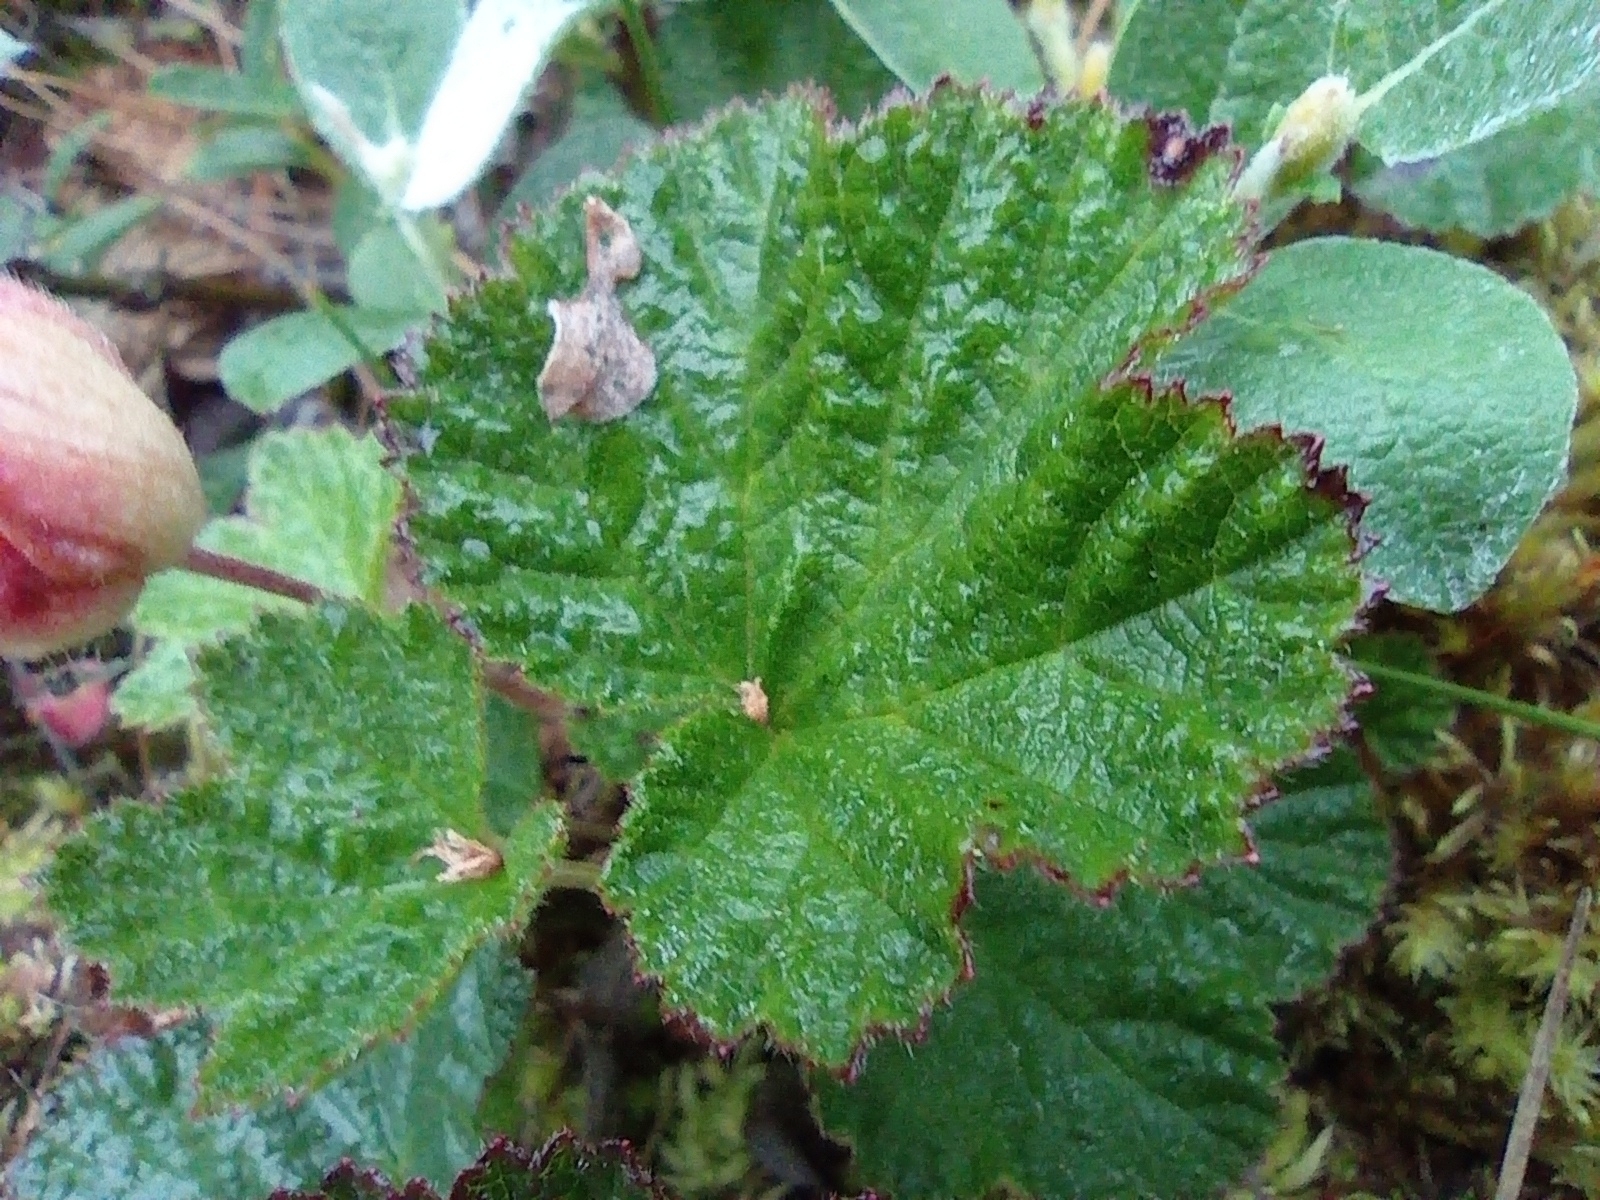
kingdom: Plantae
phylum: Tracheophyta
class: Magnoliopsida
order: Rosales
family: Rosaceae
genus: Rubus
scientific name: Rubus chamaemorus
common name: Cloudberry
